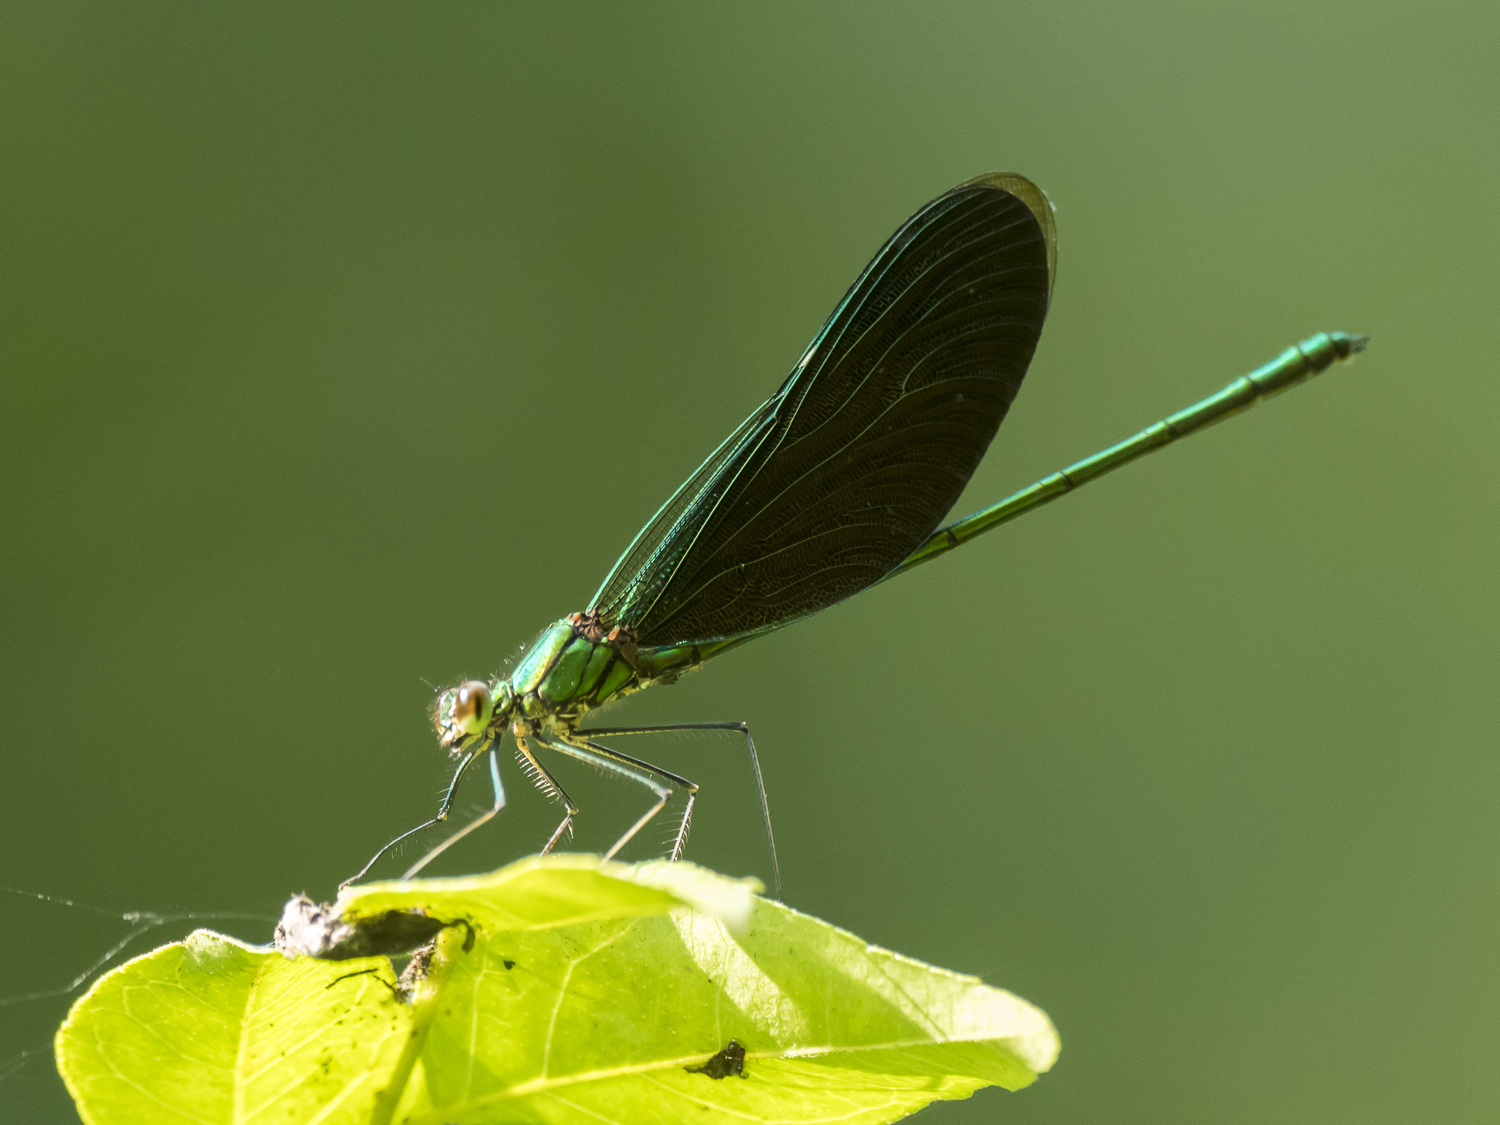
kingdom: Animalia
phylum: Arthropoda
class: Insecta
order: Odonata
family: Calopterygidae
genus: Neurobasis
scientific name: Neurobasis chinensis
